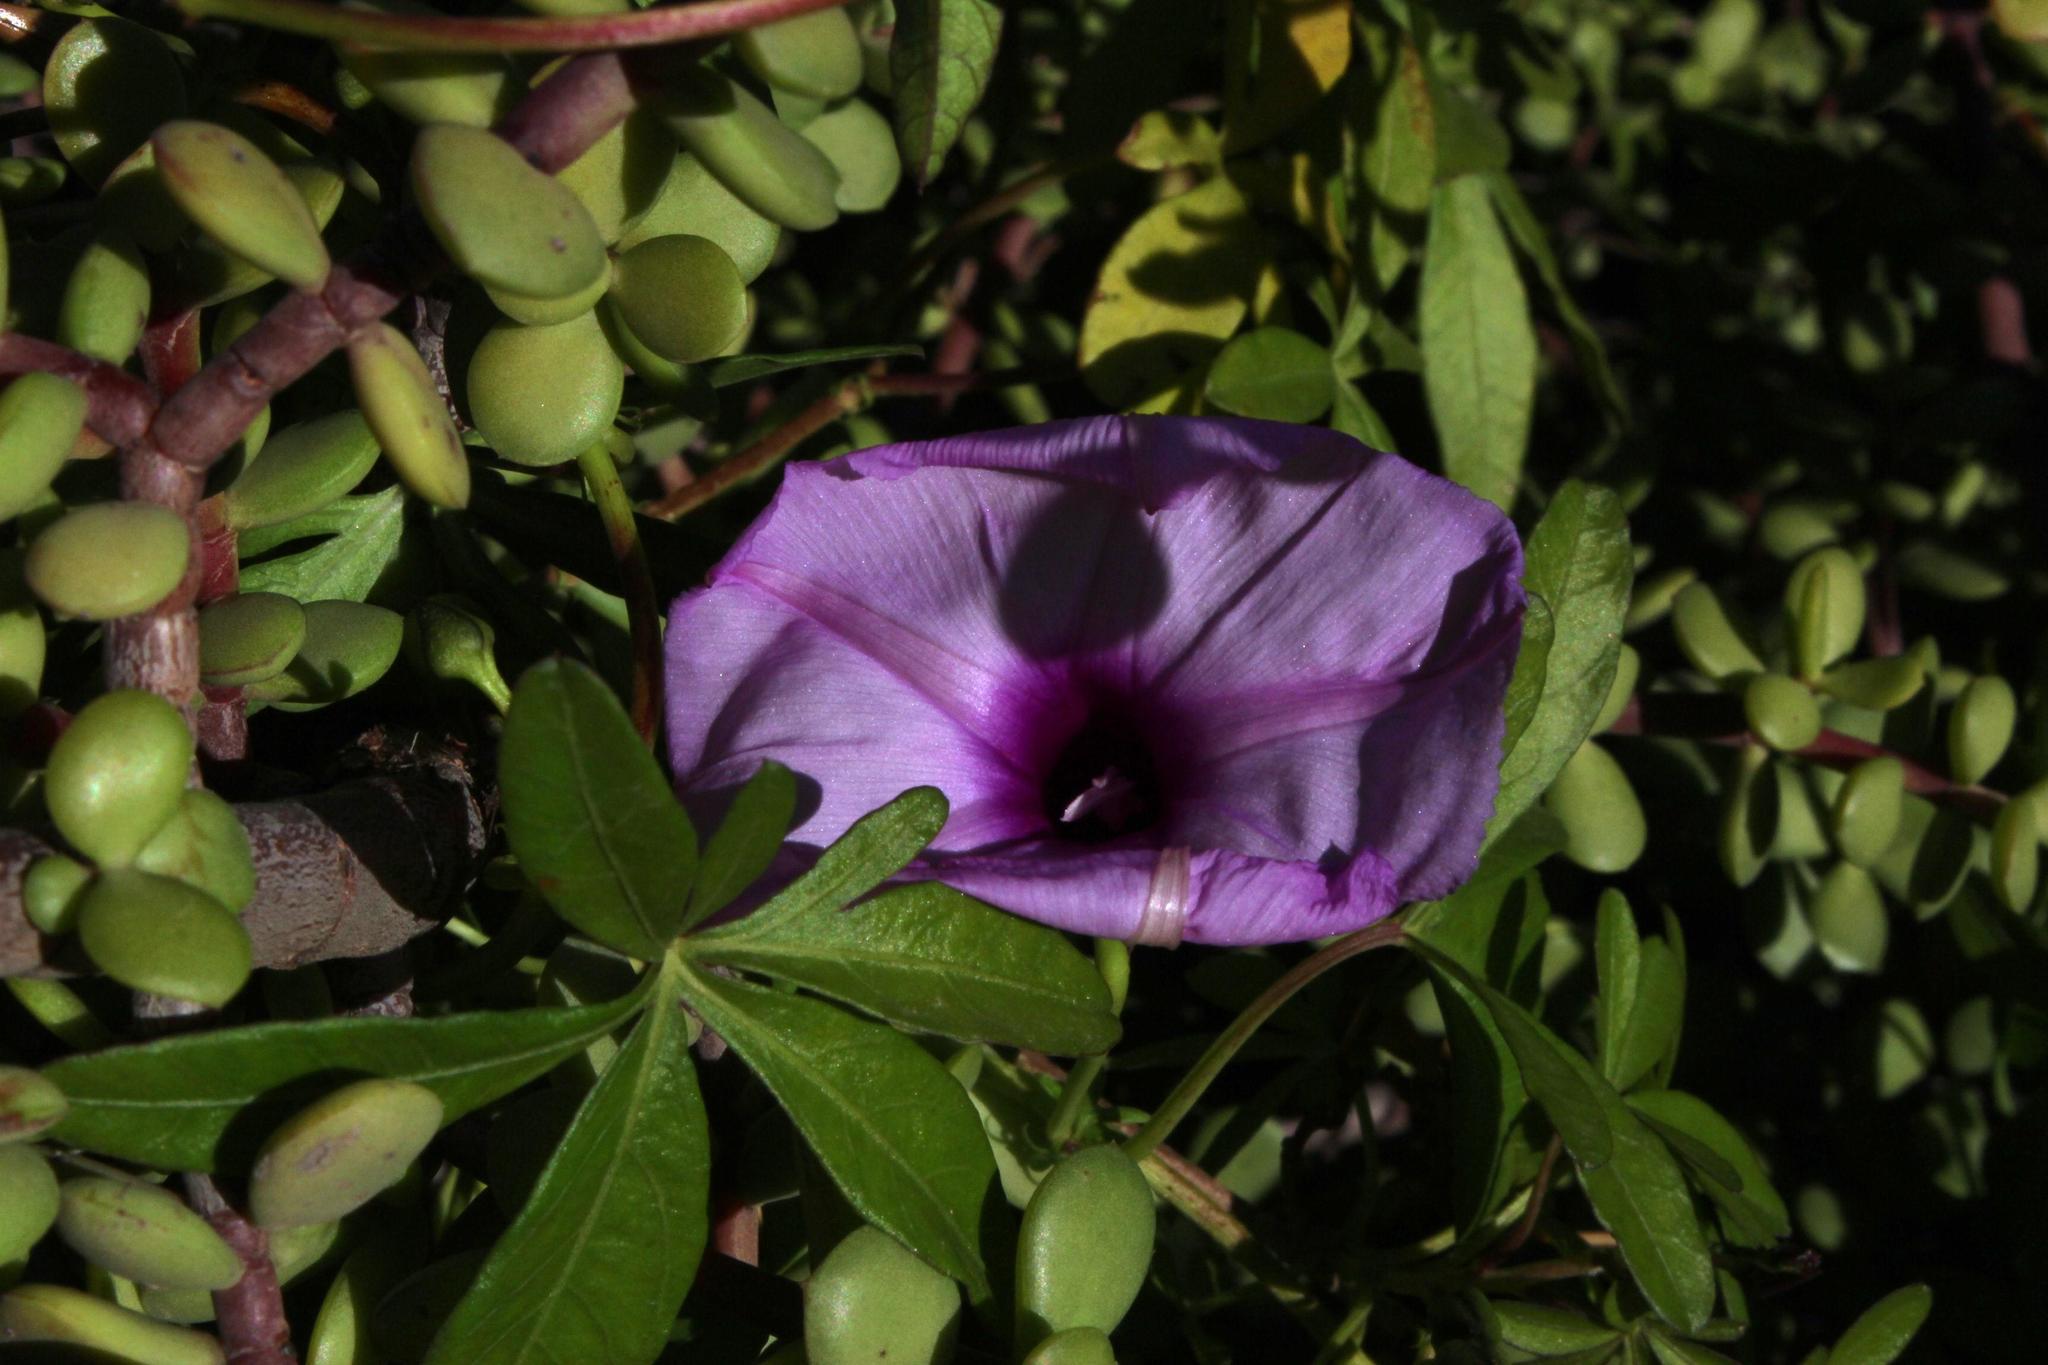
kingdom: Plantae
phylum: Tracheophyta
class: Magnoliopsida
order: Solanales
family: Convolvulaceae
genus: Ipomoea
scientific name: Ipomoea cairica
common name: Mile a minute vine
